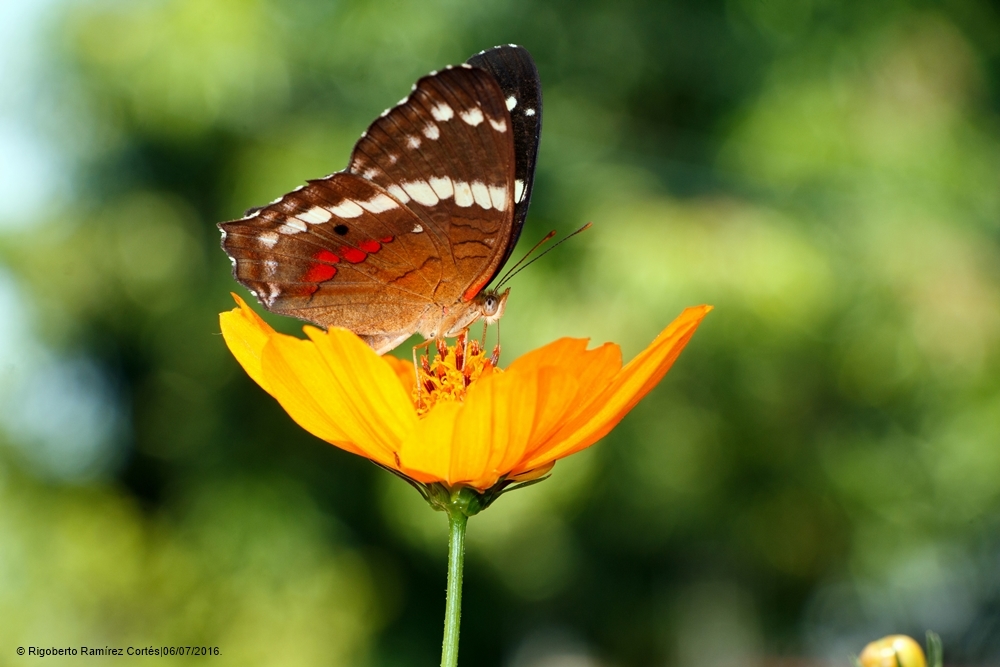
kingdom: Animalia
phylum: Arthropoda
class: Insecta
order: Lepidoptera
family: Nymphalidae
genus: Anartia
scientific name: Anartia fatima
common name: Banded peacock
